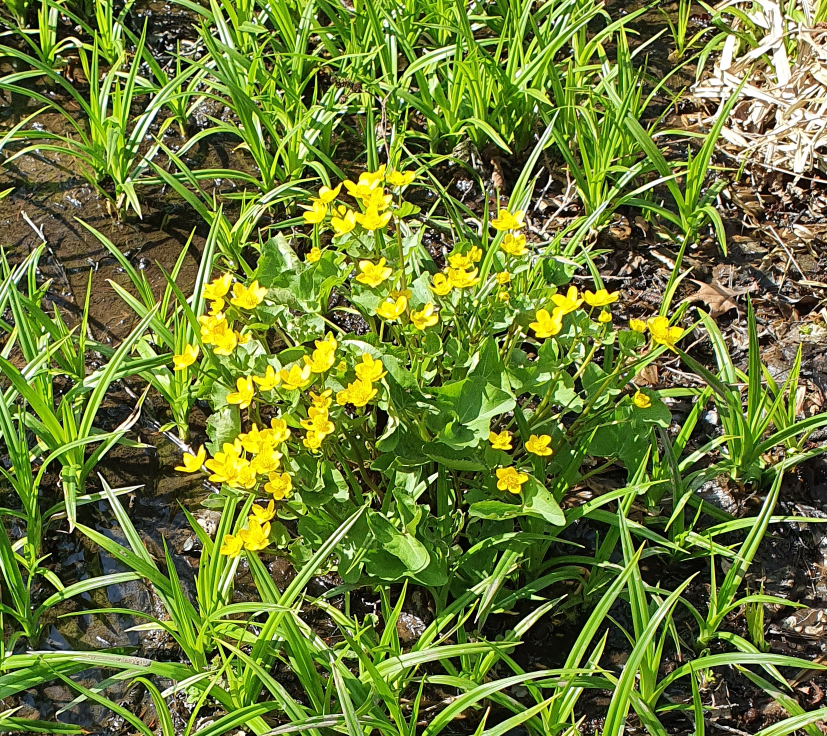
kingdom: Plantae
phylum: Tracheophyta
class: Magnoliopsida
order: Ranunculales
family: Ranunculaceae
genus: Caltha
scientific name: Caltha palustris
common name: Marsh marigold
